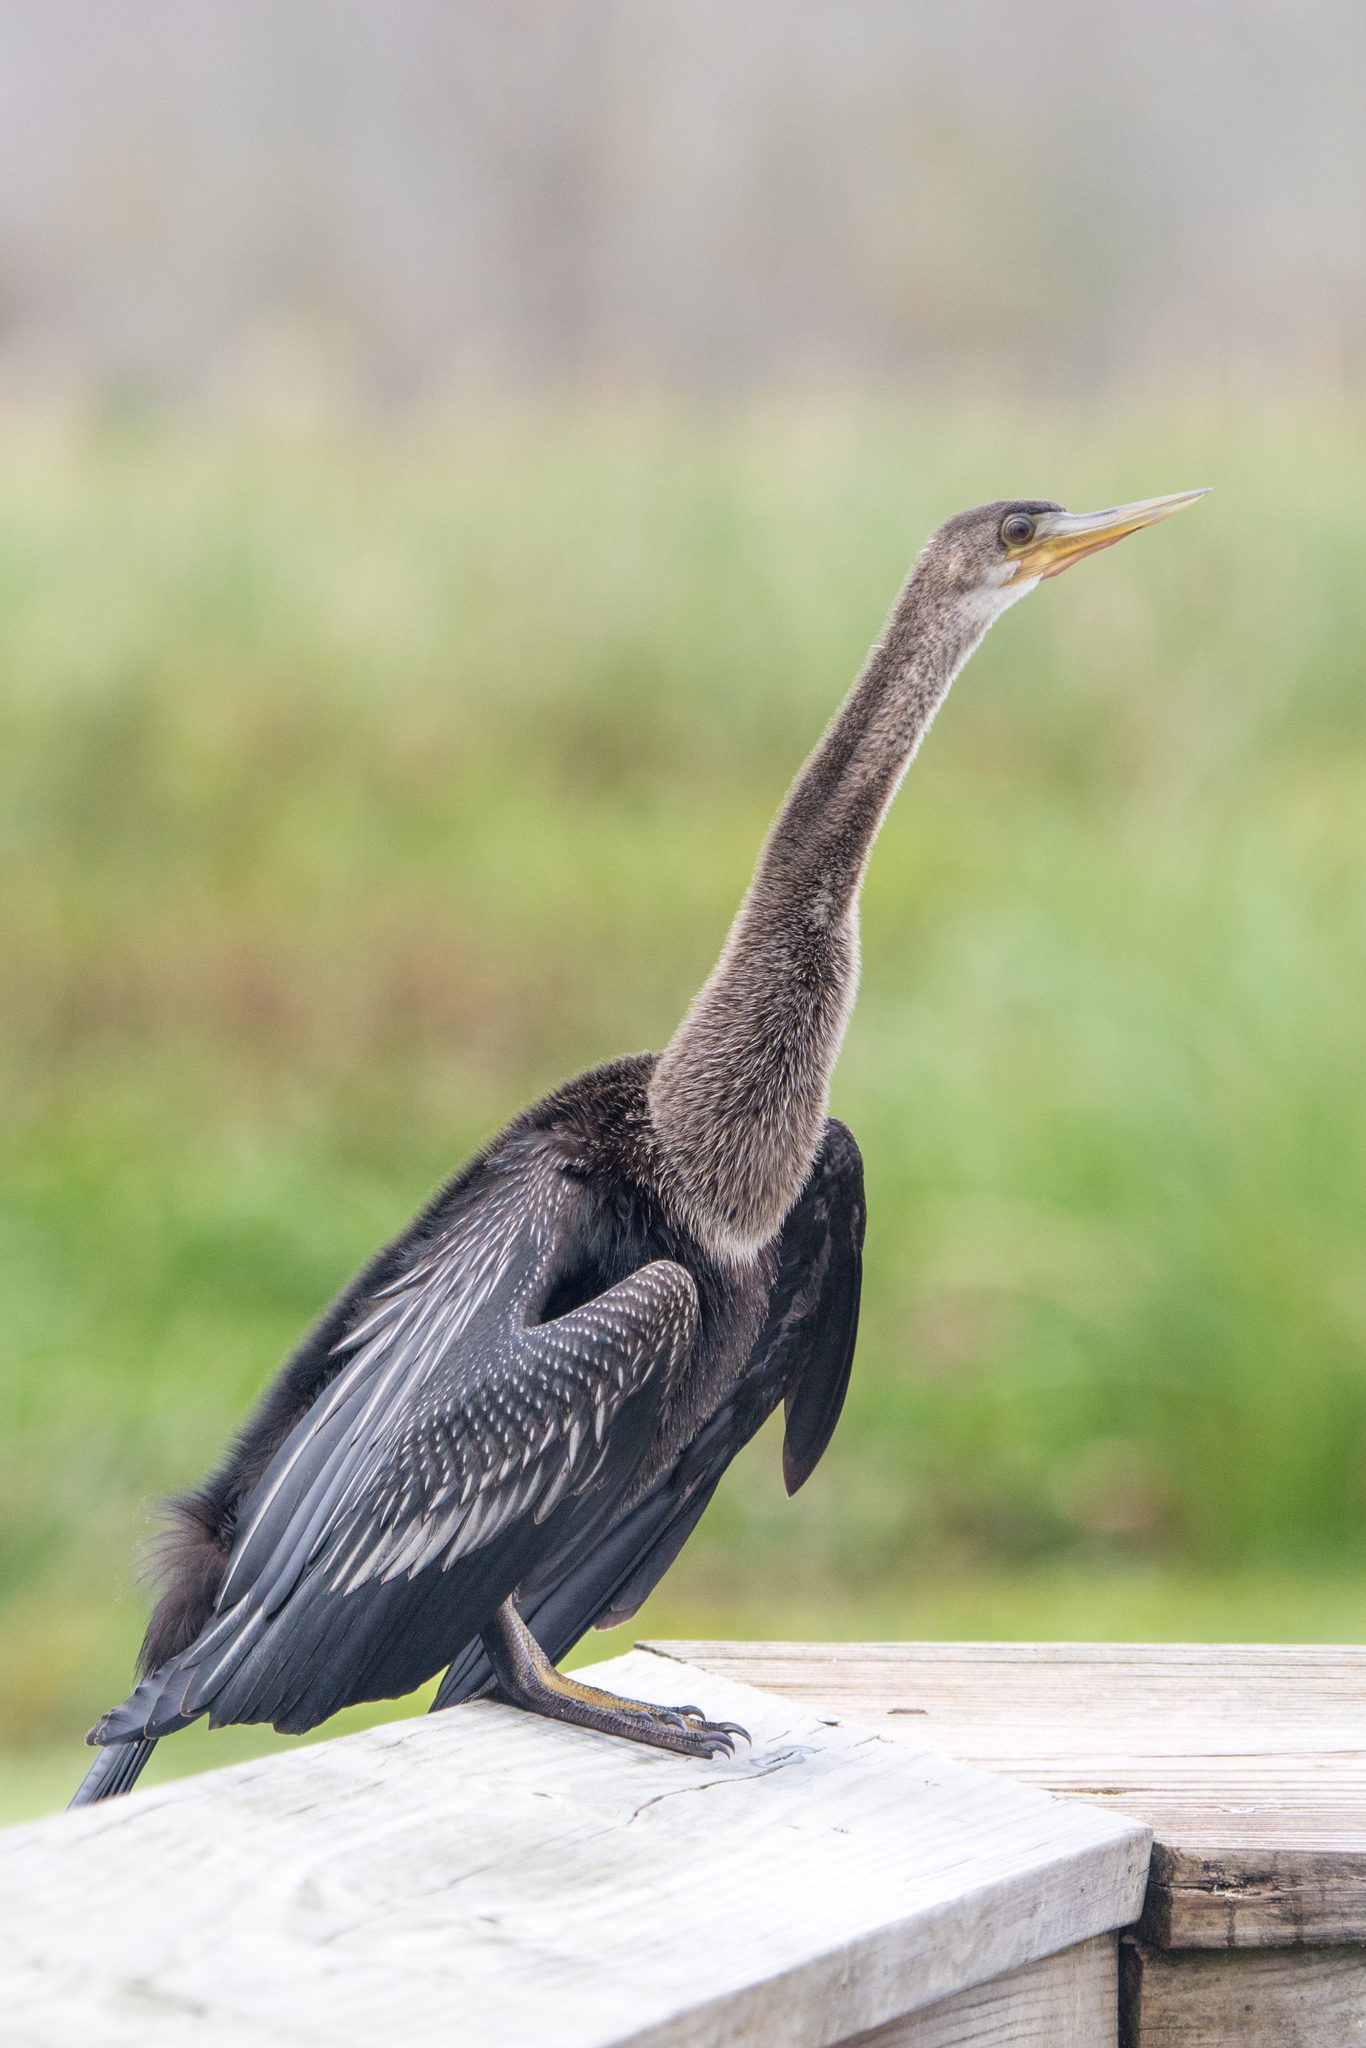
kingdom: Animalia
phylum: Chordata
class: Aves
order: Suliformes
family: Anhingidae
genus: Anhinga
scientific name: Anhinga anhinga
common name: Anhinga
